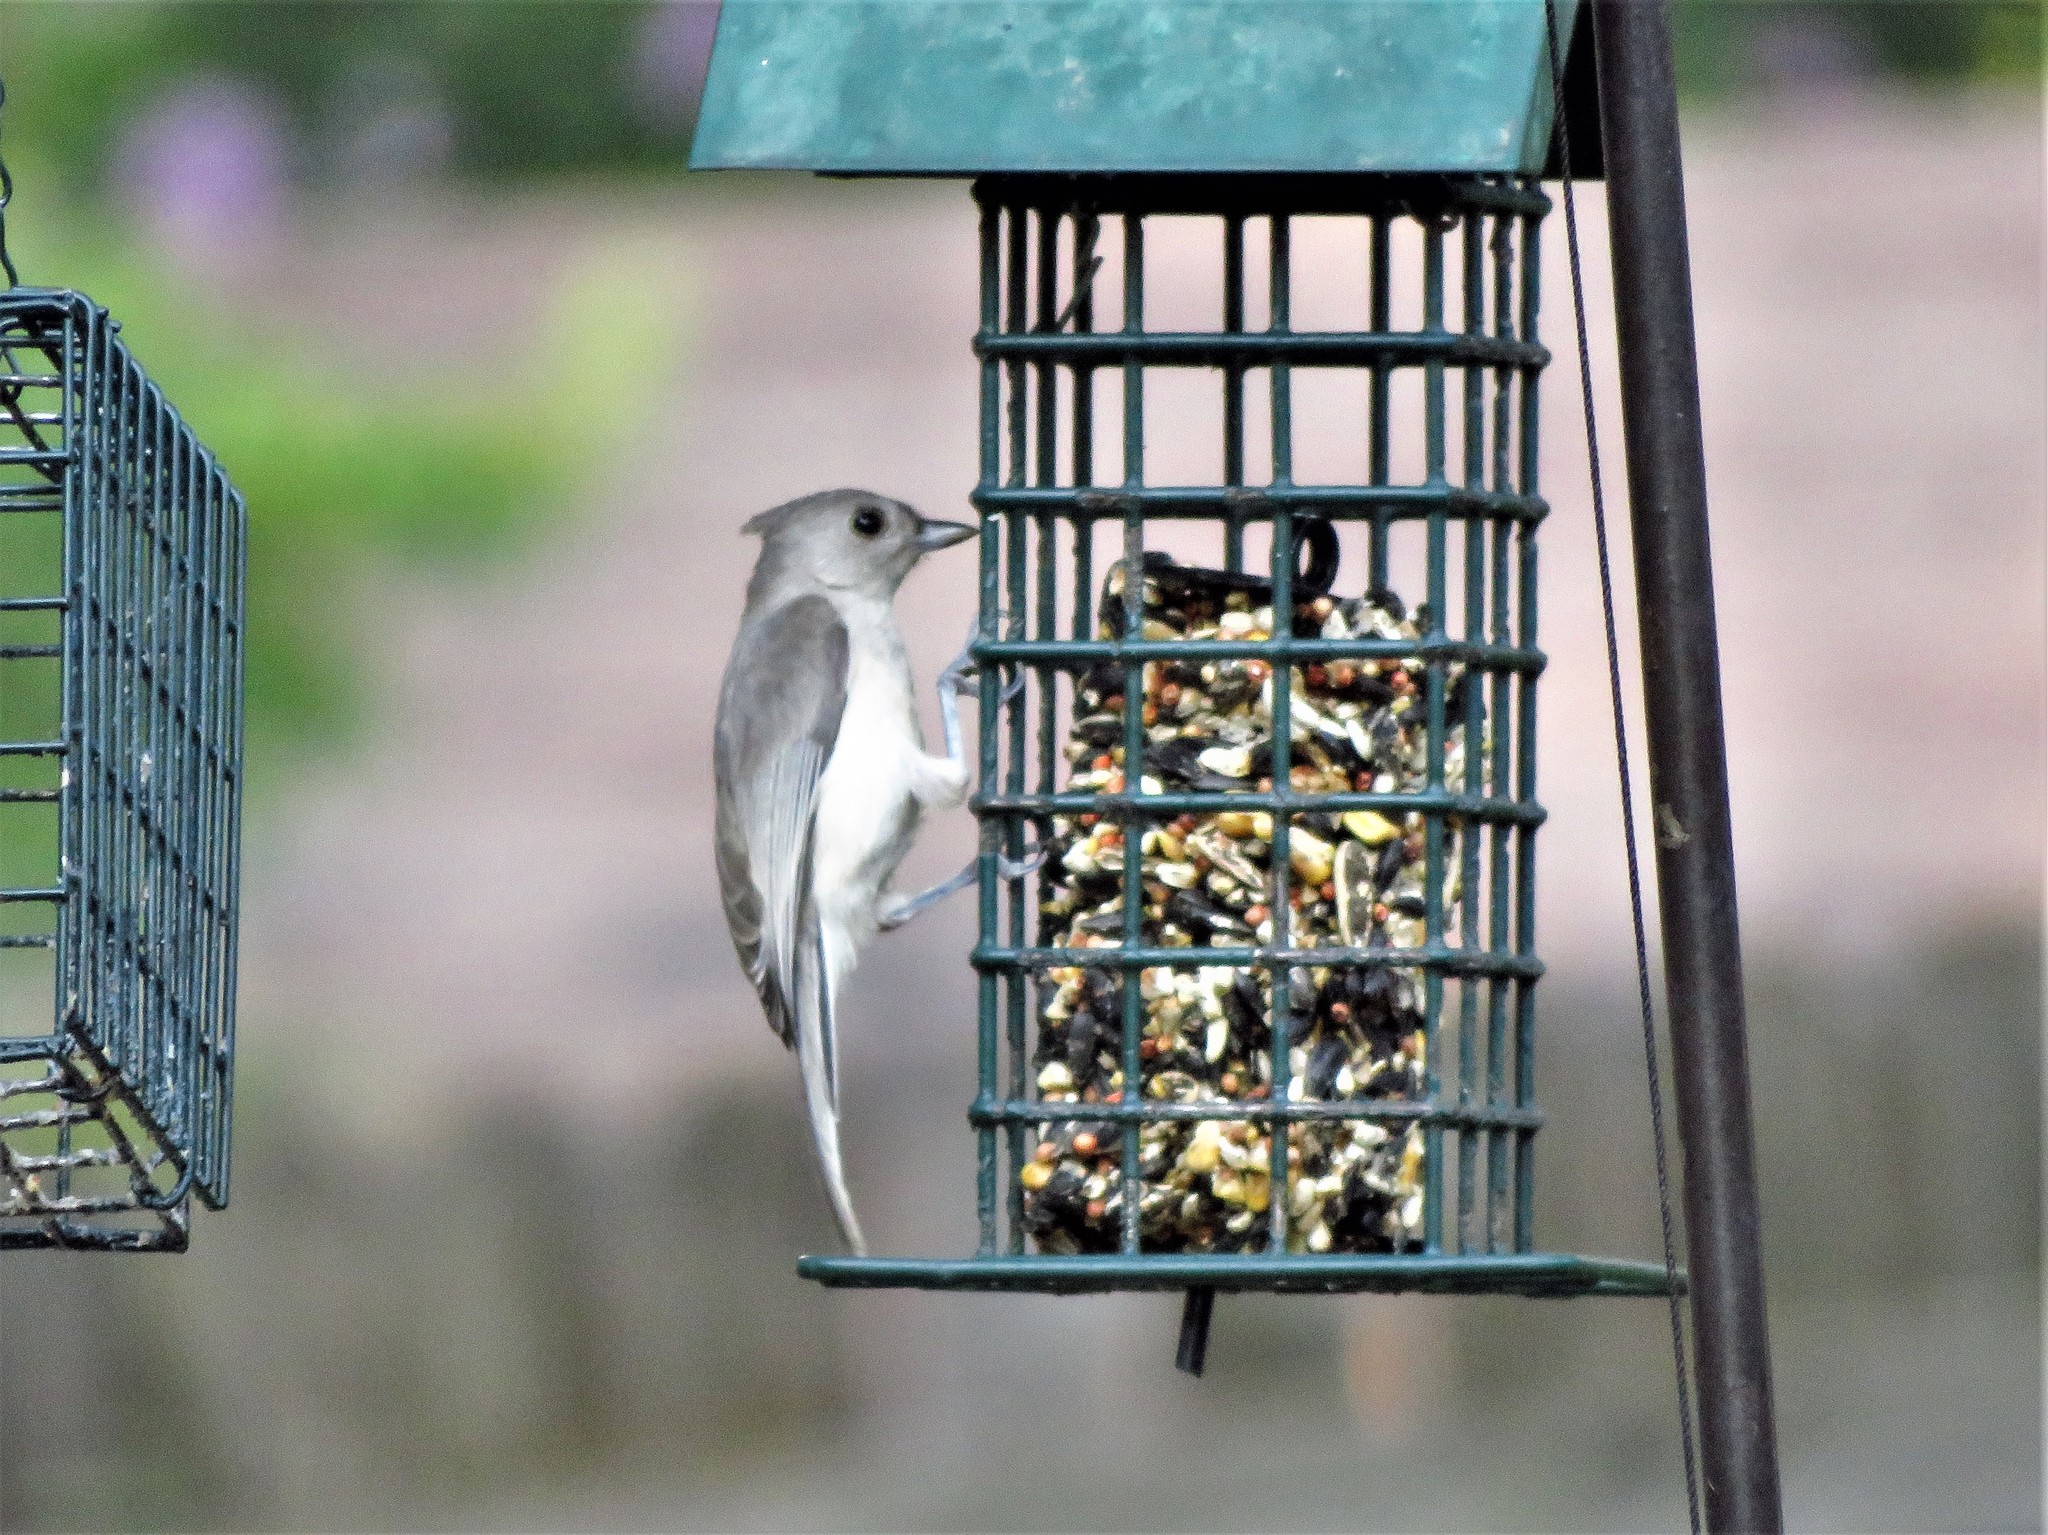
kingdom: Animalia
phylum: Chordata
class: Aves
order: Passeriformes
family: Paridae
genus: Baeolophus
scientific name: Baeolophus bicolor
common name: Tufted titmouse
